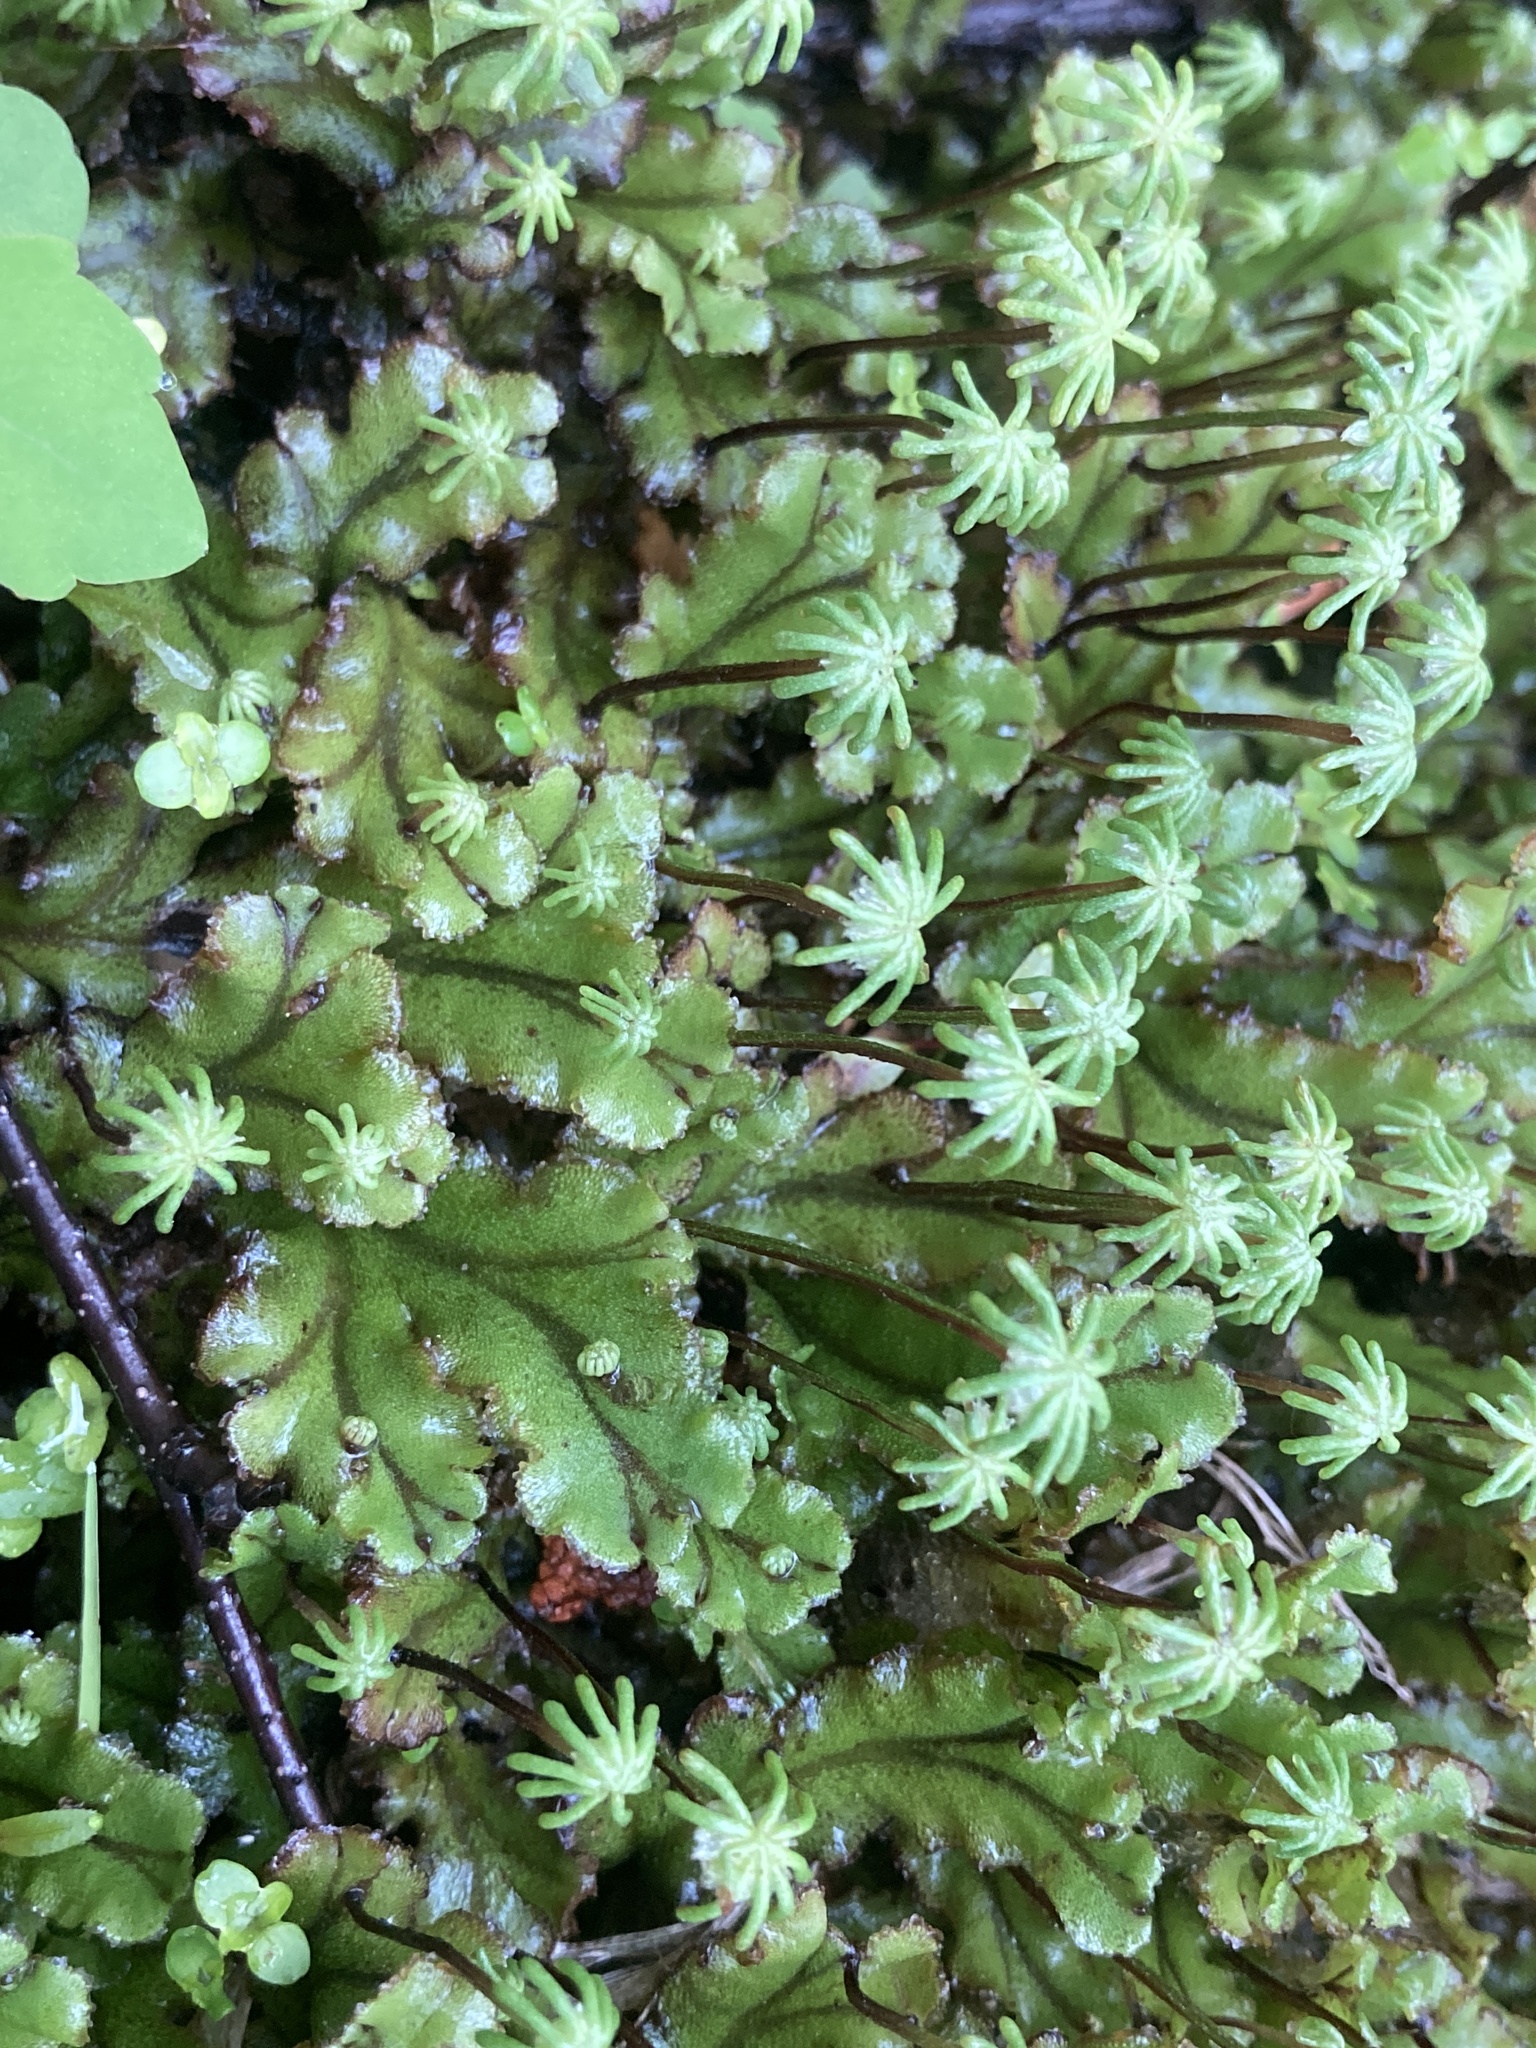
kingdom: Plantae
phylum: Marchantiophyta
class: Marchantiopsida
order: Marchantiales
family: Marchantiaceae
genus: Marchantia
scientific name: Marchantia polymorpha
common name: Common liverwort
